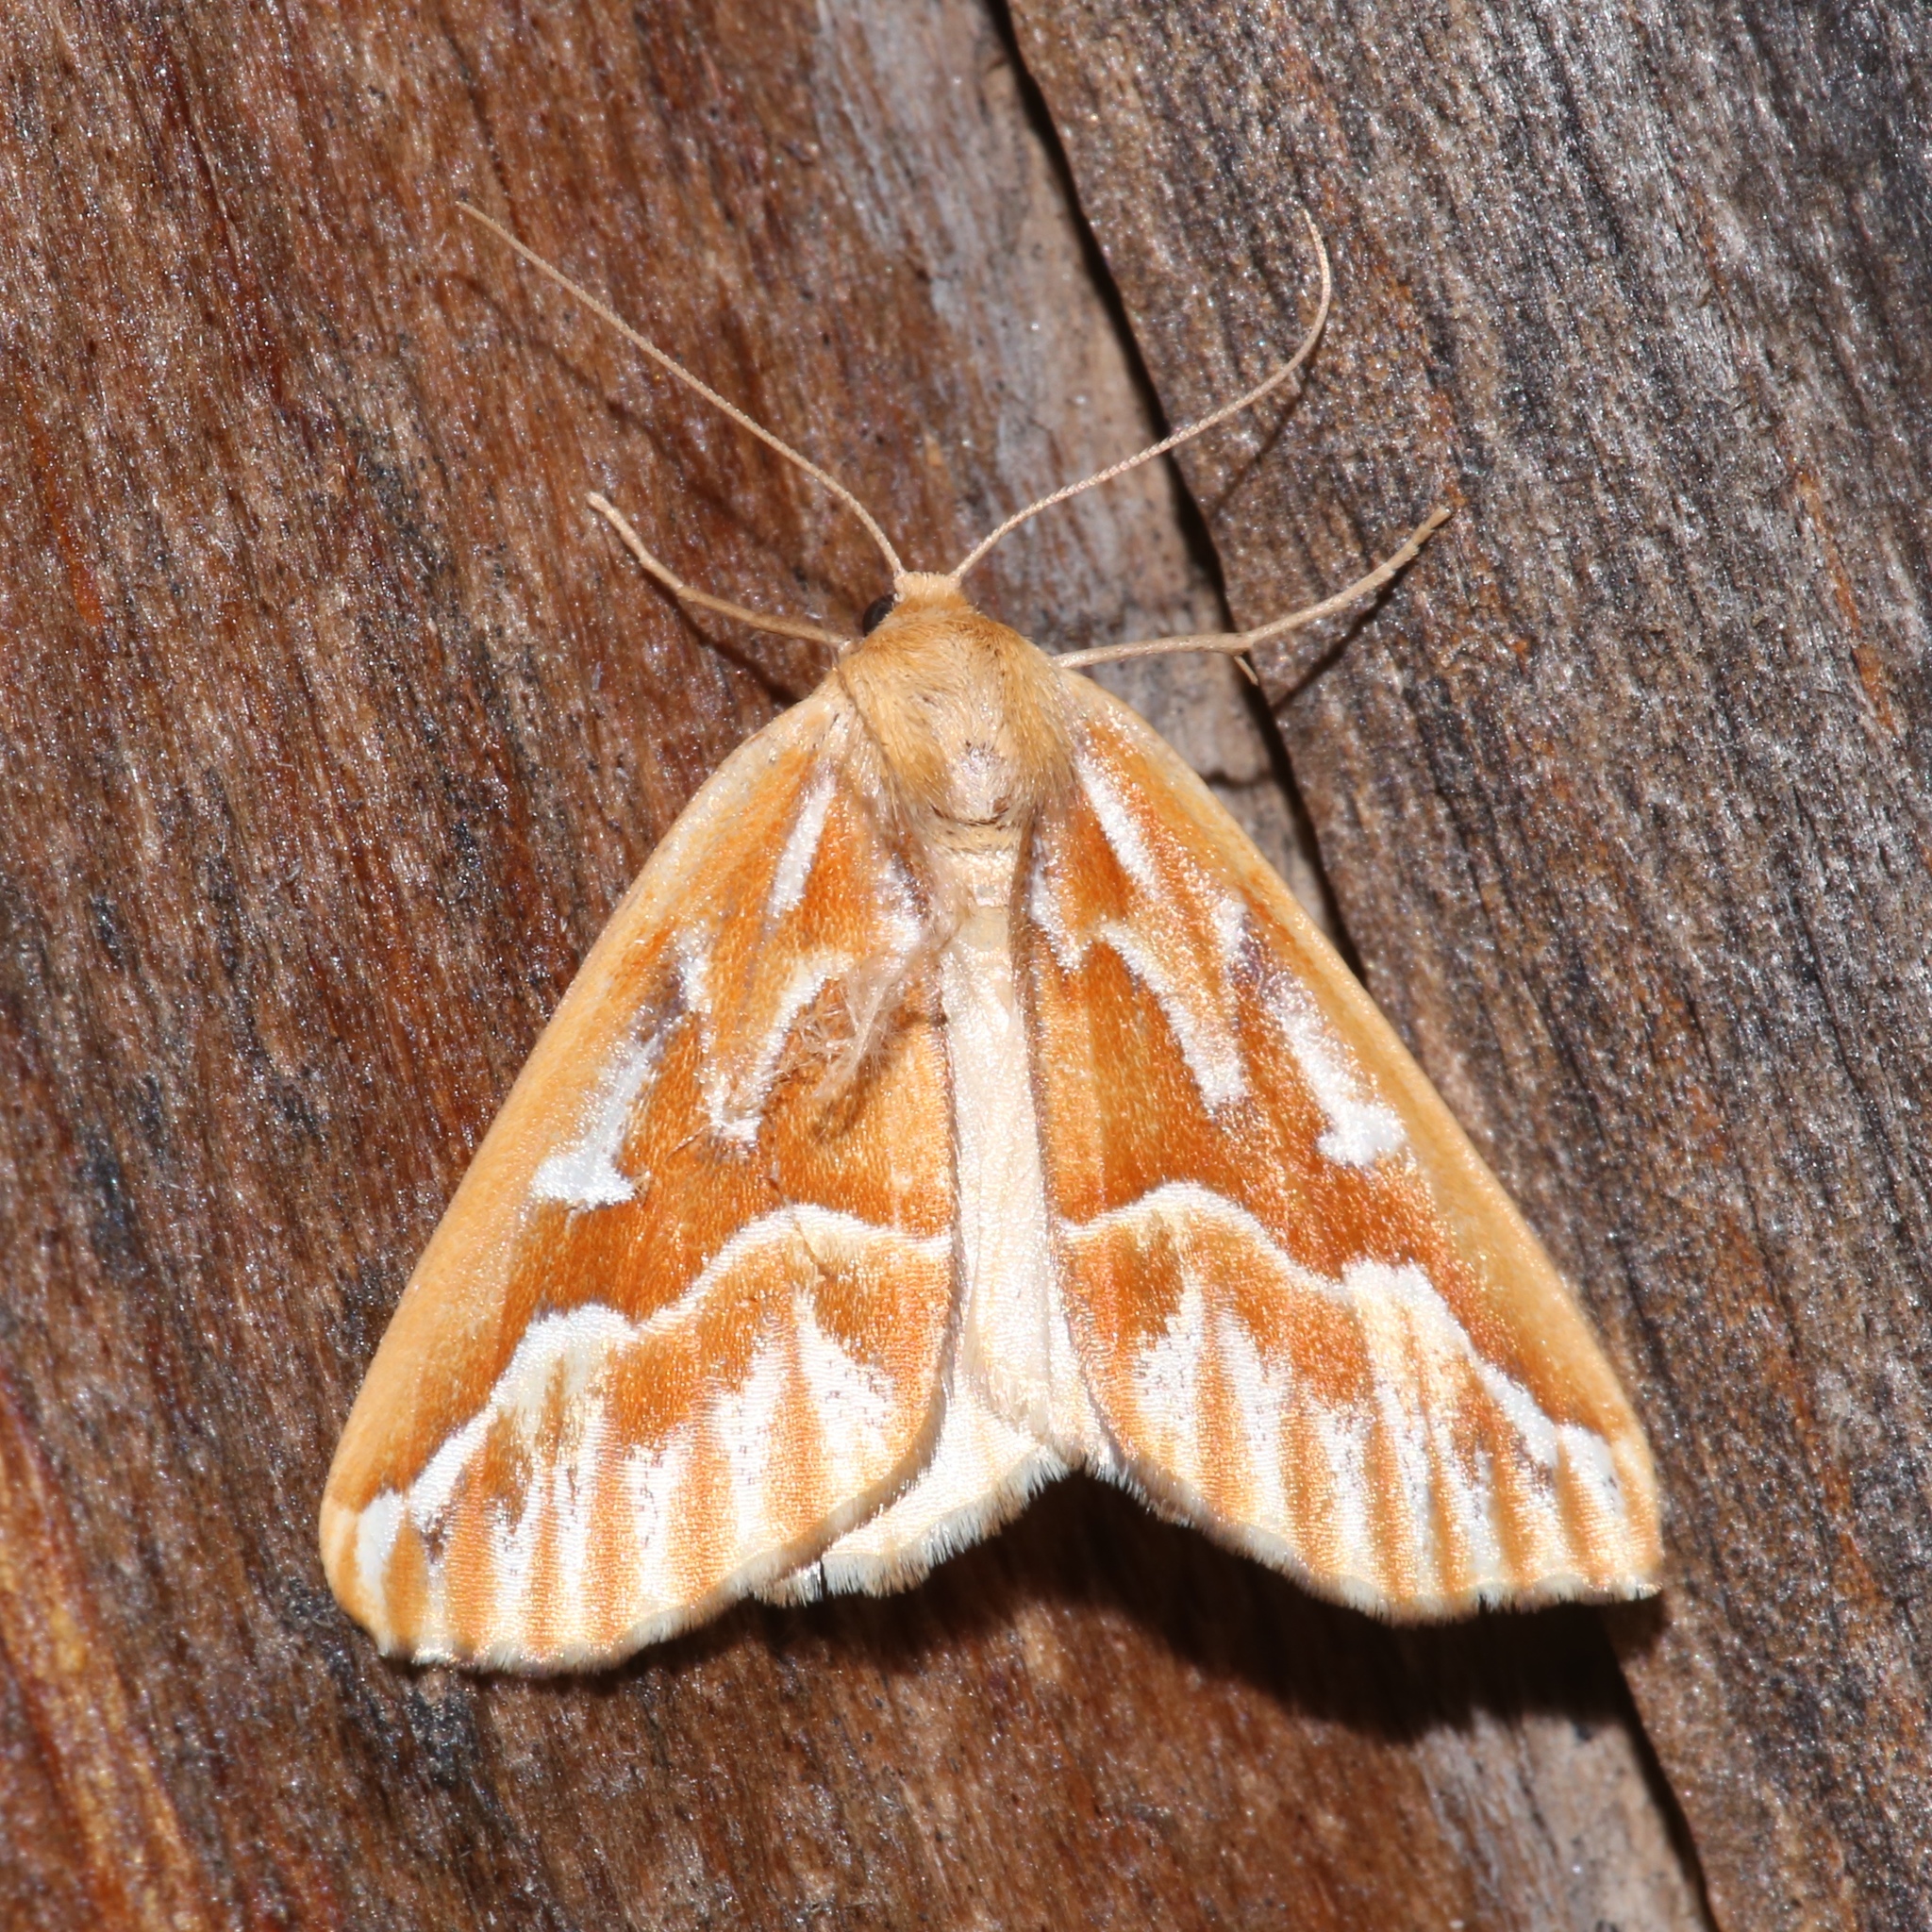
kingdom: Animalia
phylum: Arthropoda
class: Insecta
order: Lepidoptera
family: Geometridae
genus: Caripeta
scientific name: Caripeta piniata
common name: Northern pine looper moth
